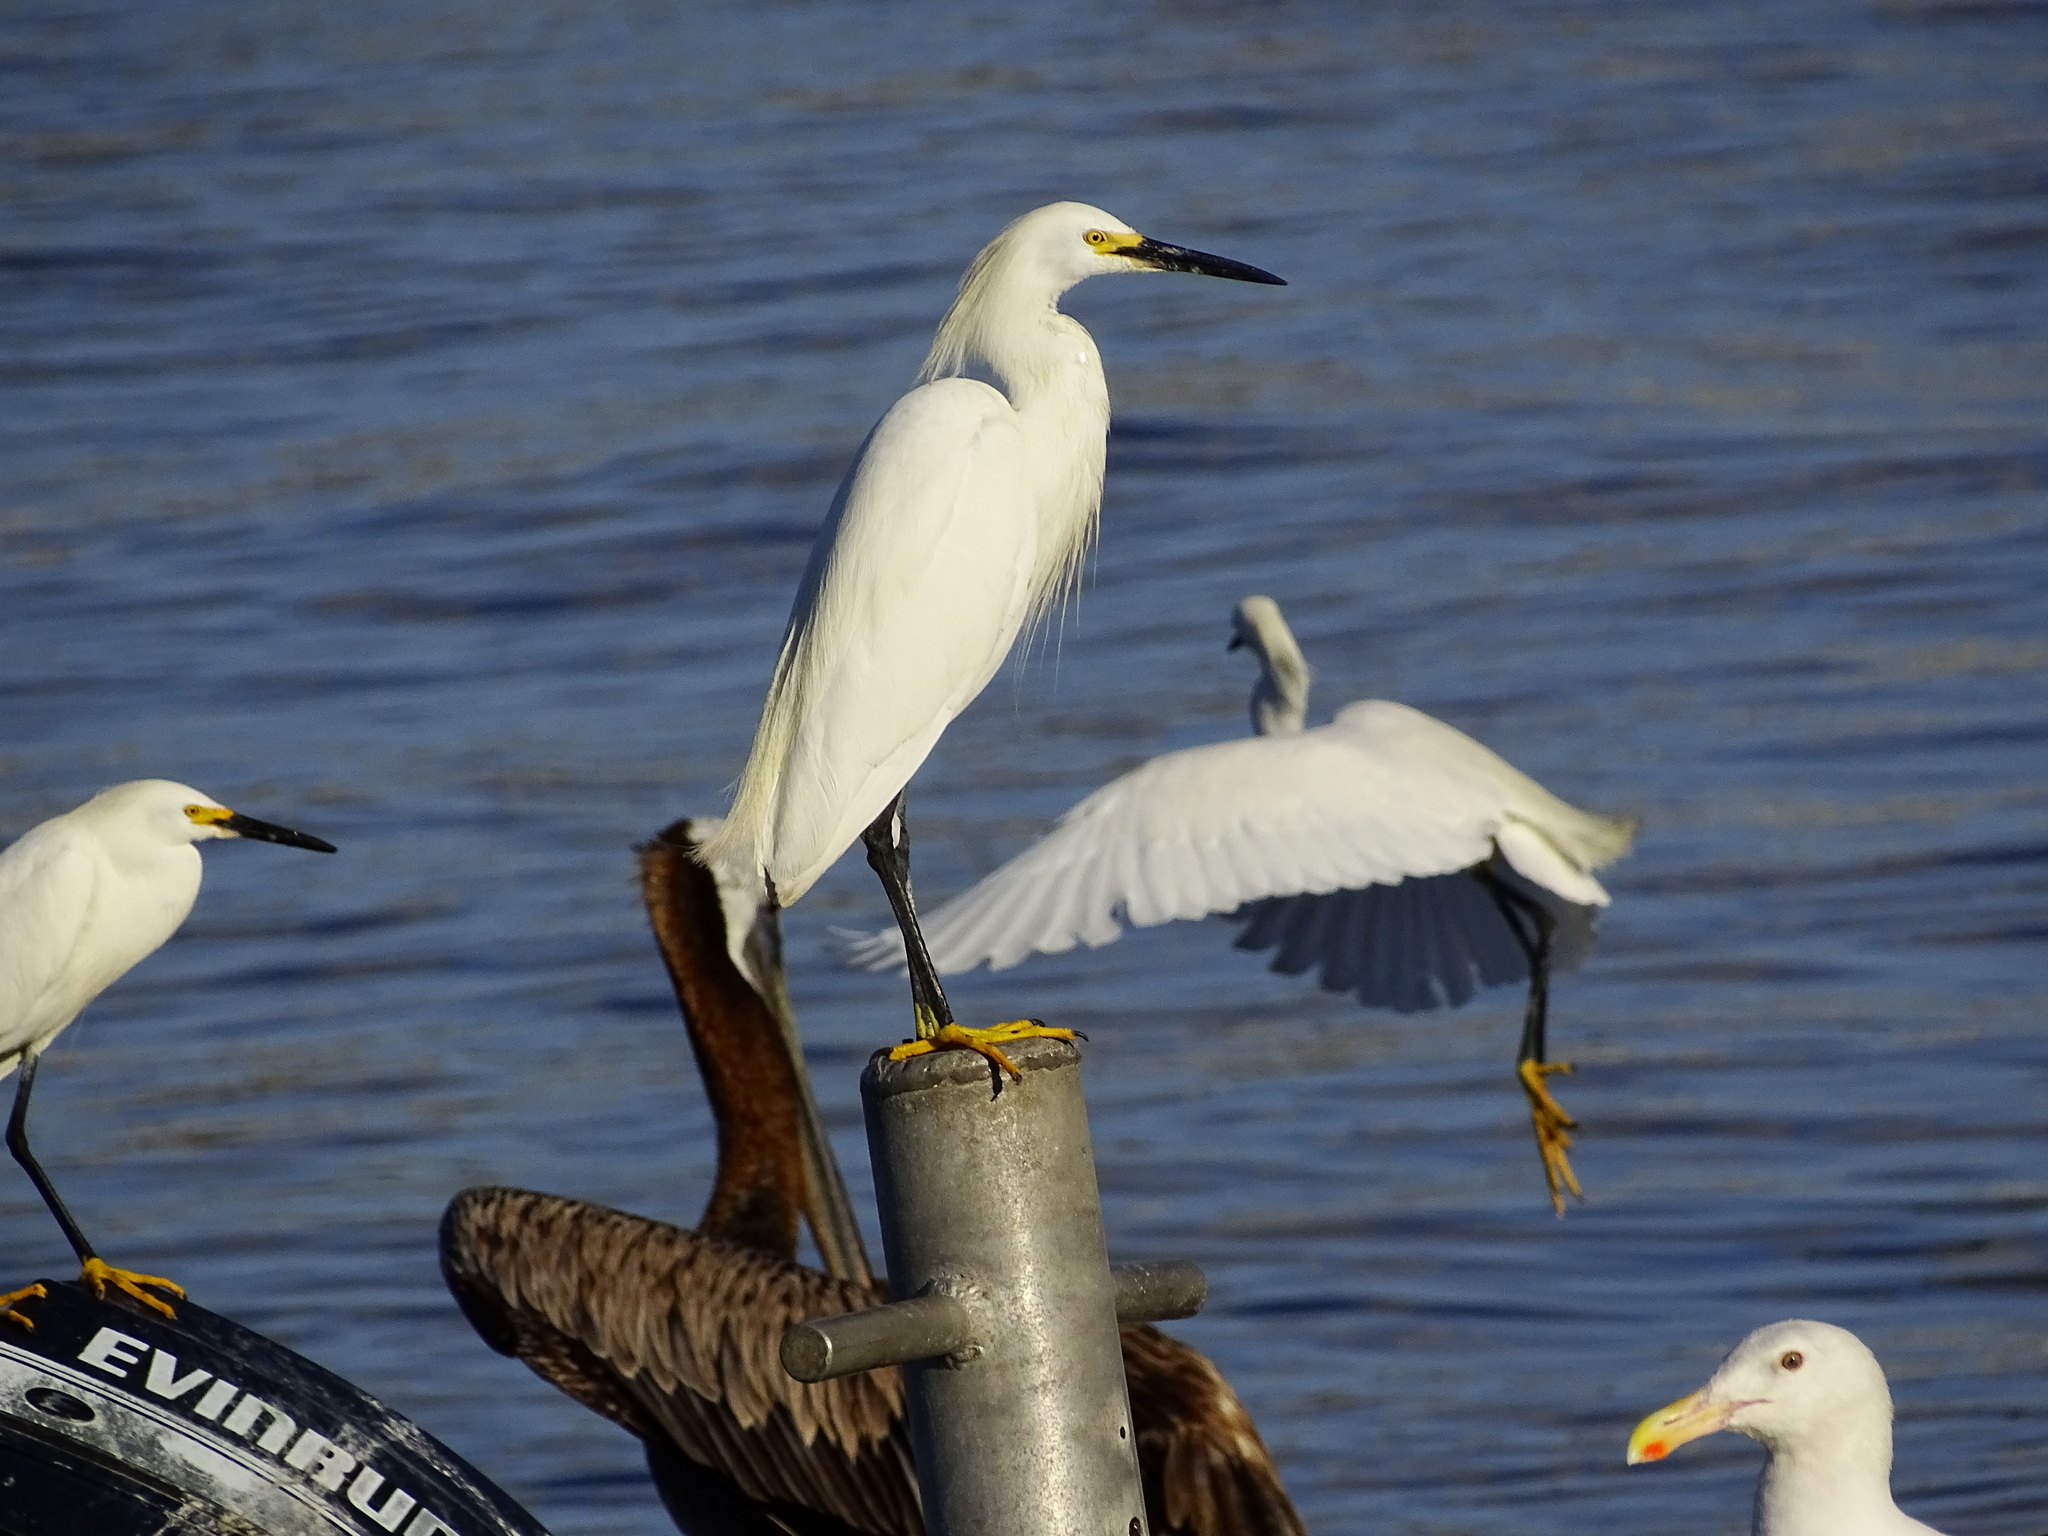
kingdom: Animalia
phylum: Chordata
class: Aves
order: Pelecaniformes
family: Ardeidae
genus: Egretta
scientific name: Egretta thula
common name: Snowy egret
